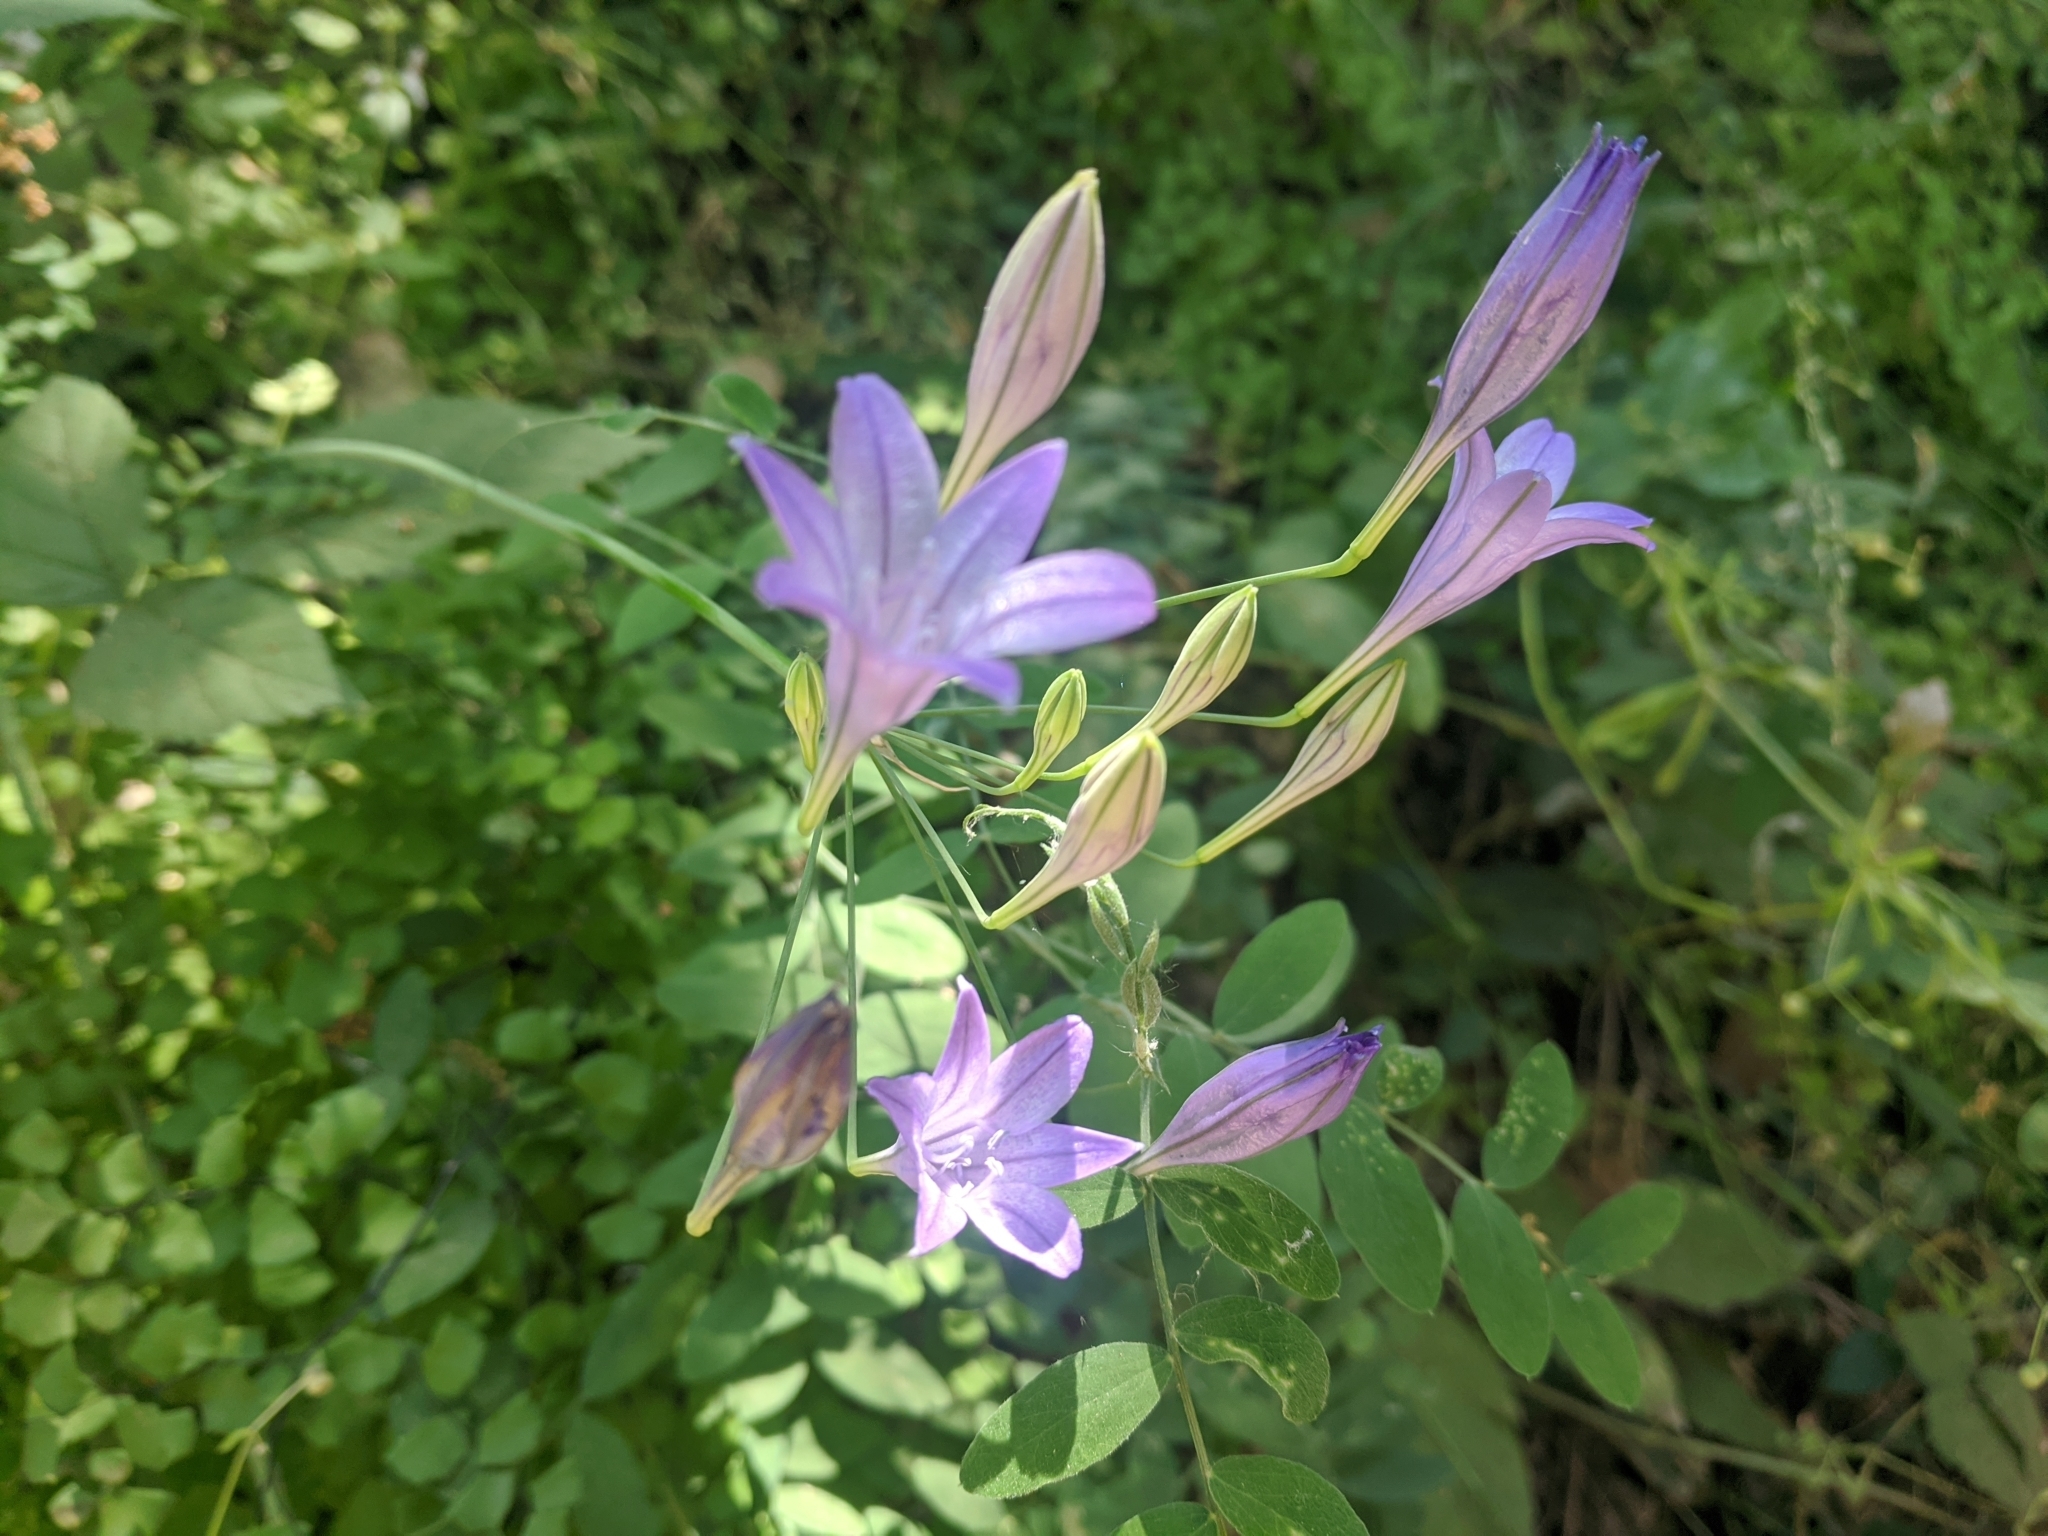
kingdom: Plantae
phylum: Tracheophyta
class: Liliopsida
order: Asparagales
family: Asparagaceae
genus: Triteleia
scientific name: Triteleia laxa
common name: Triplet-lily
